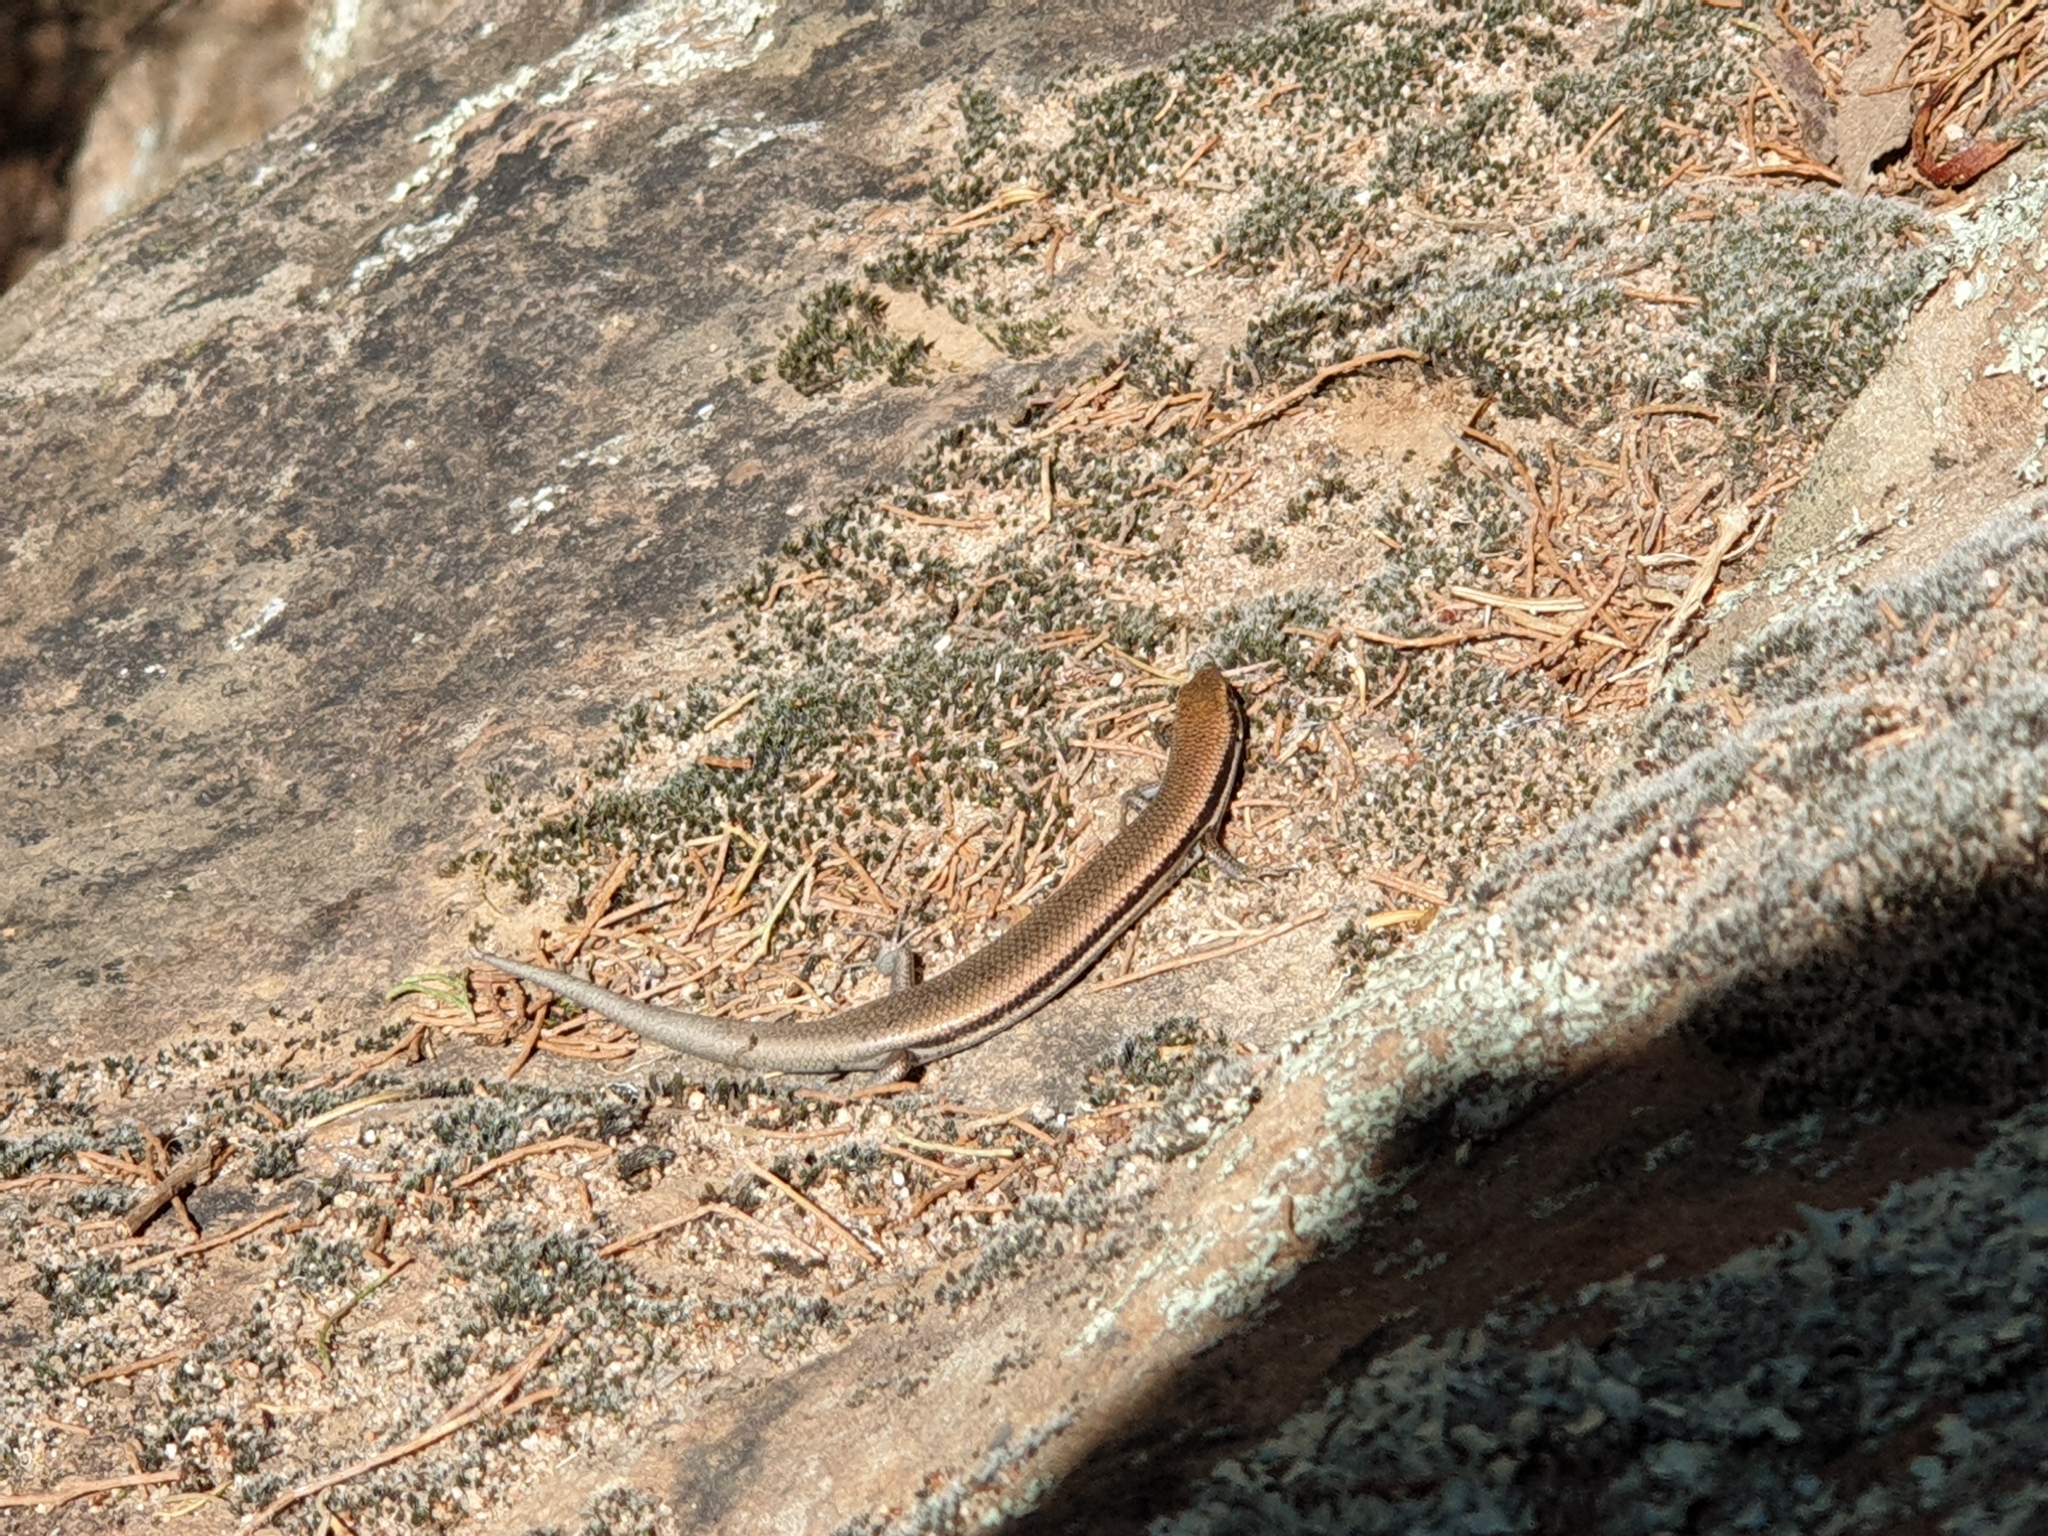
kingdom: Animalia
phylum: Chordata
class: Squamata
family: Scincidae
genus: Morethia
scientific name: Morethia boulengeri
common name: South-eastern morethia skink
